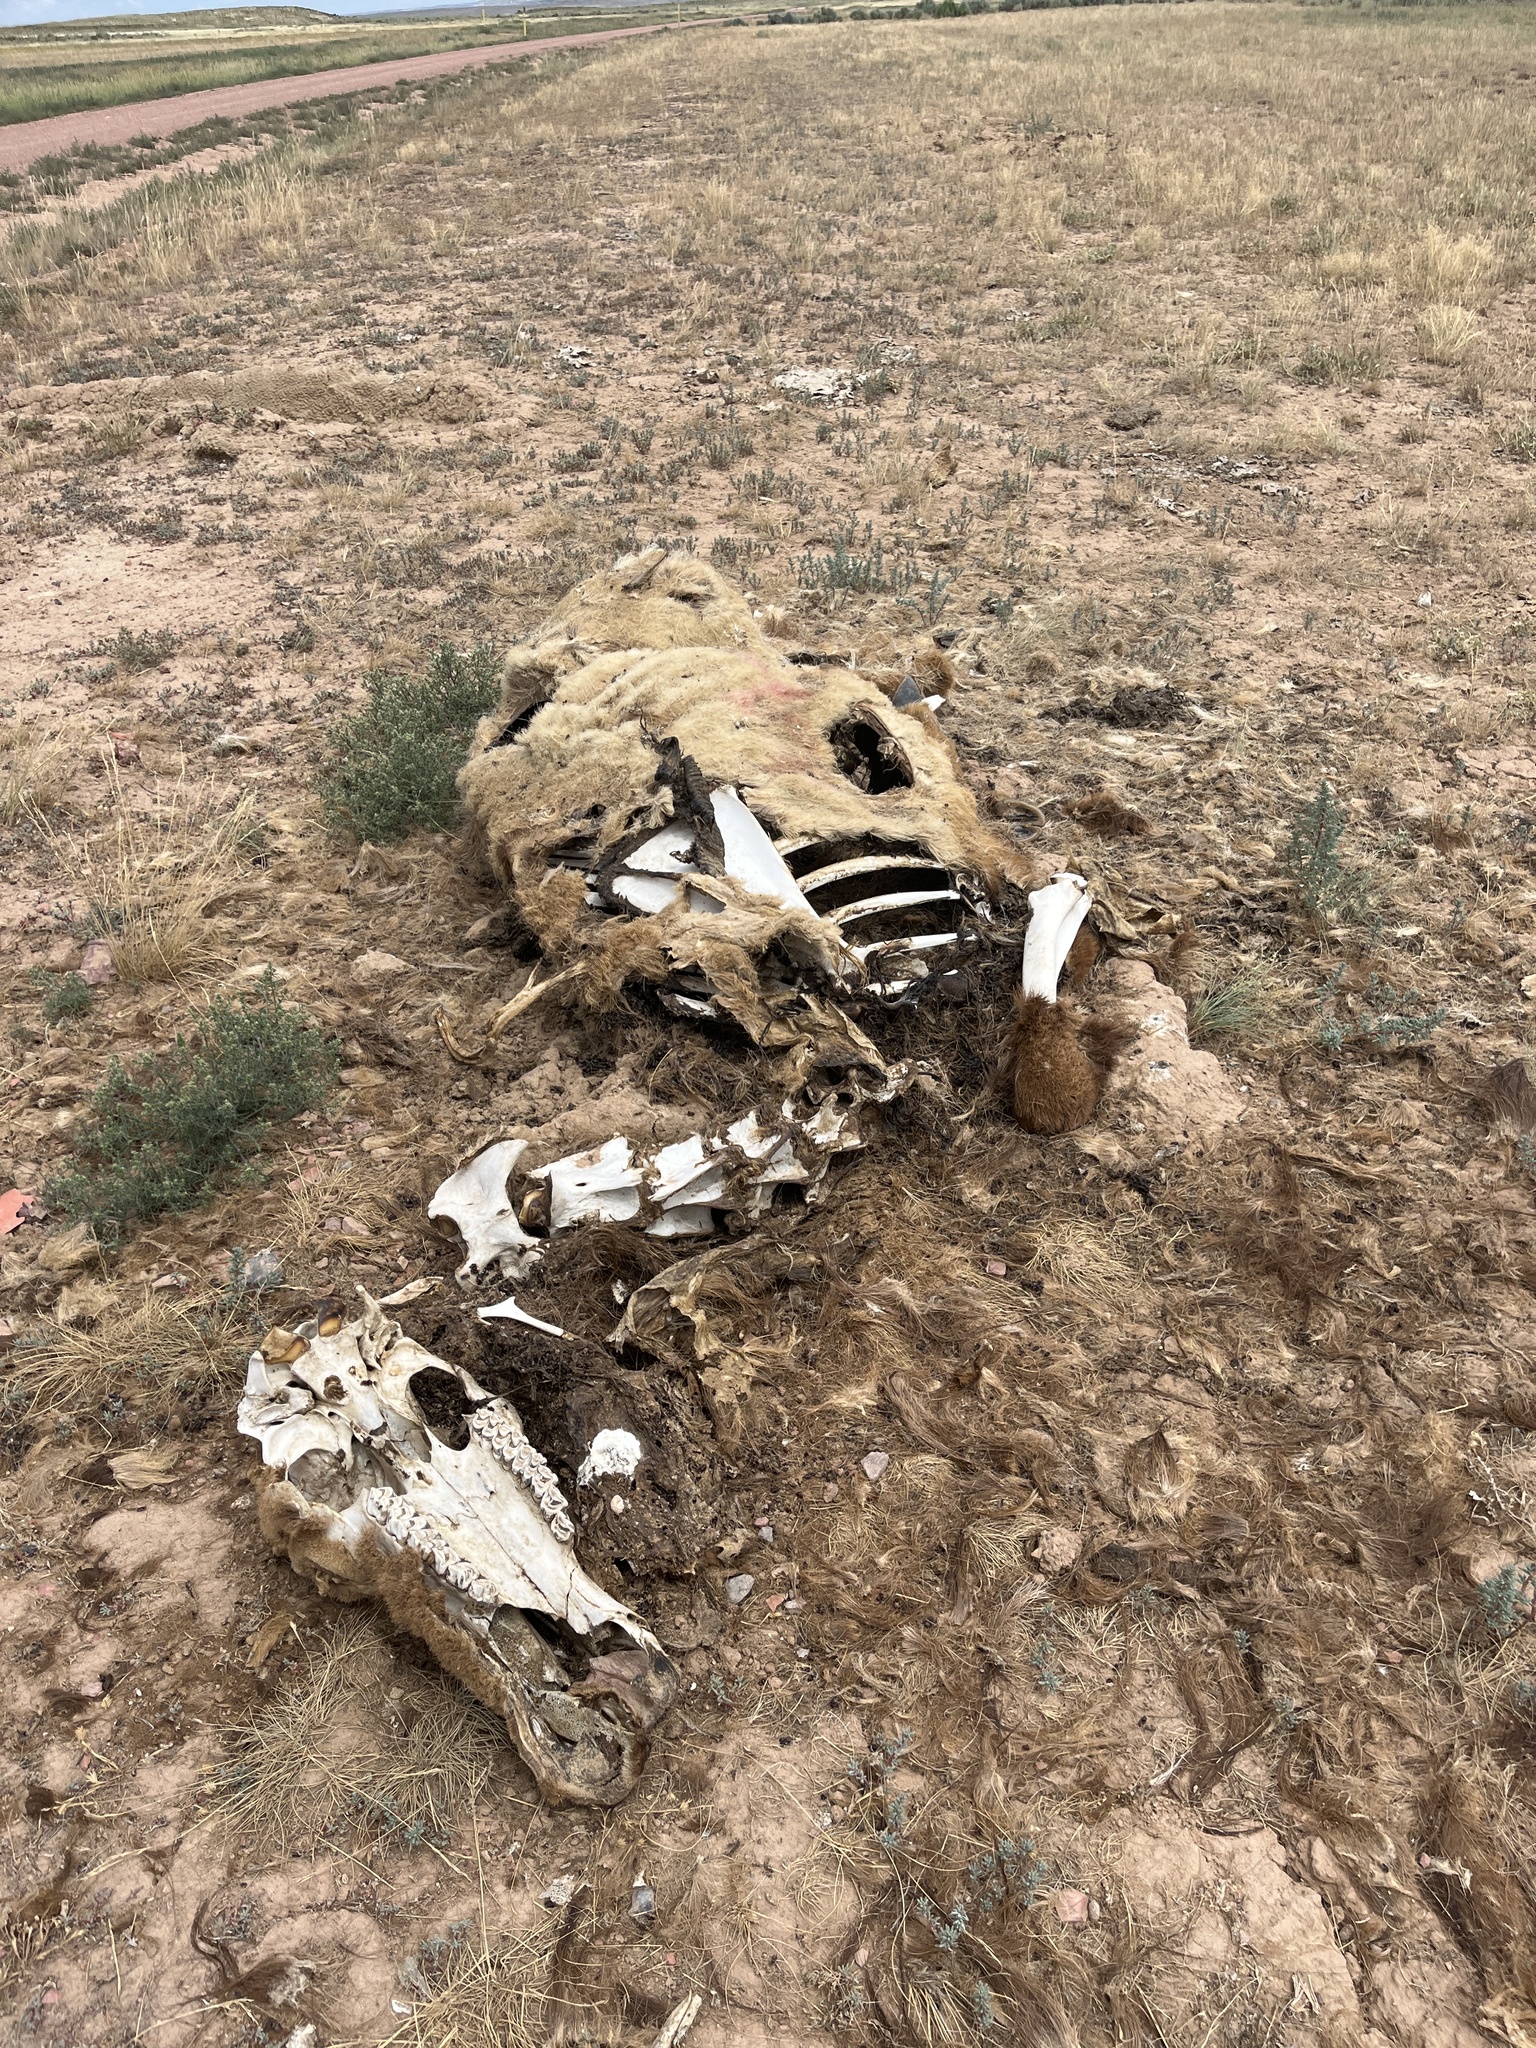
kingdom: Animalia
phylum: Chordata
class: Mammalia
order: Artiodactyla
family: Cervidae
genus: Cervus
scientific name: Cervus elaphus
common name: Red deer
